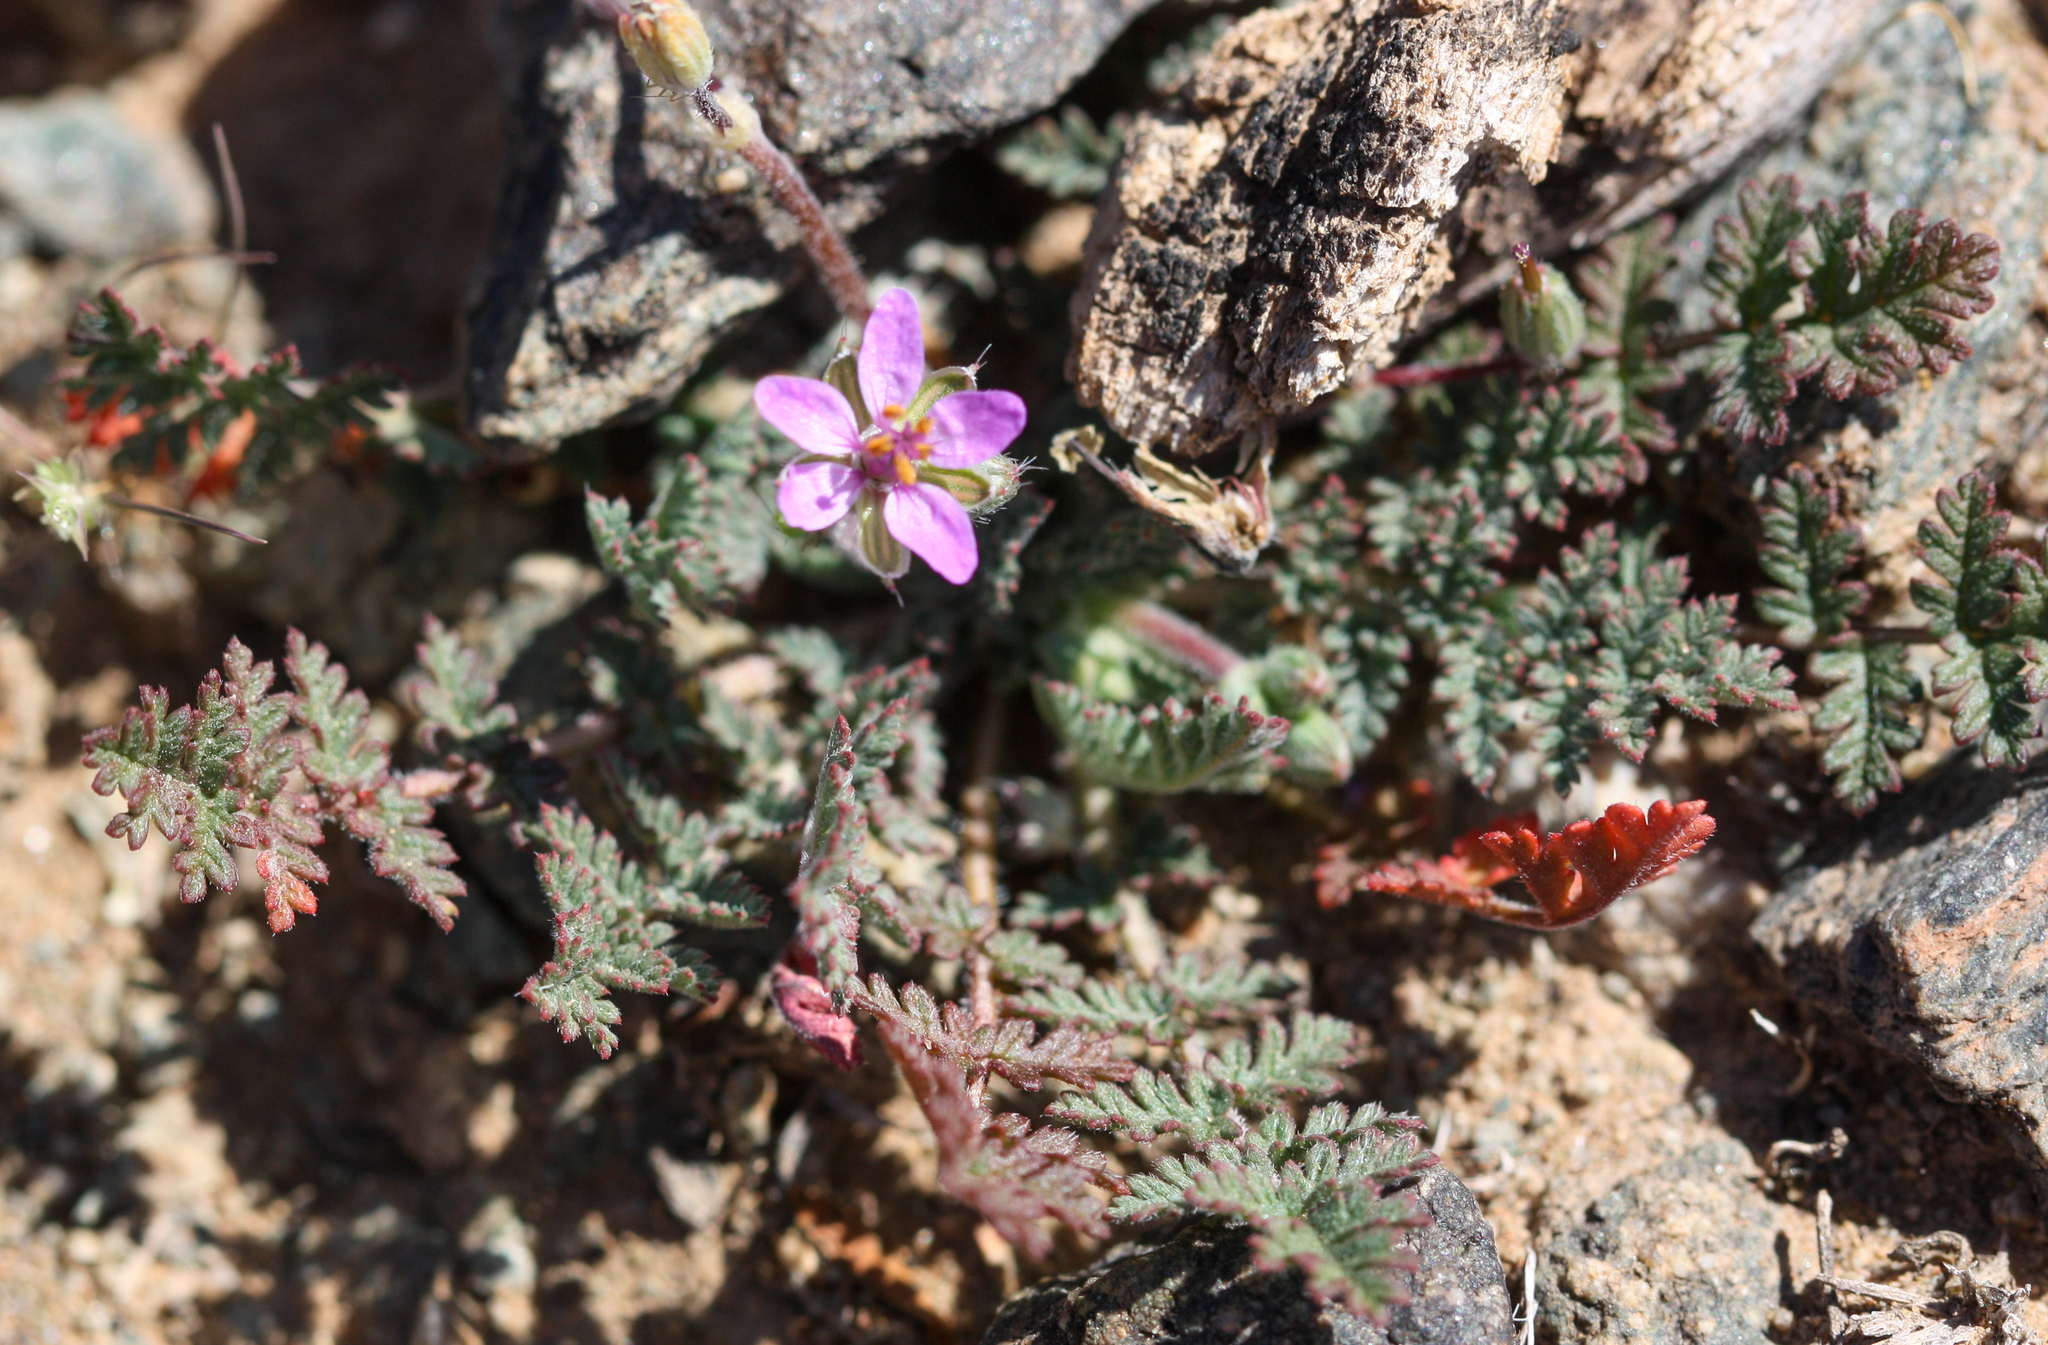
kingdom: Plantae
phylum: Tracheophyta
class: Magnoliopsida
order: Geraniales
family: Geraniaceae
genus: Erodium
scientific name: Erodium cicutarium
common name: Common stork's-bill
